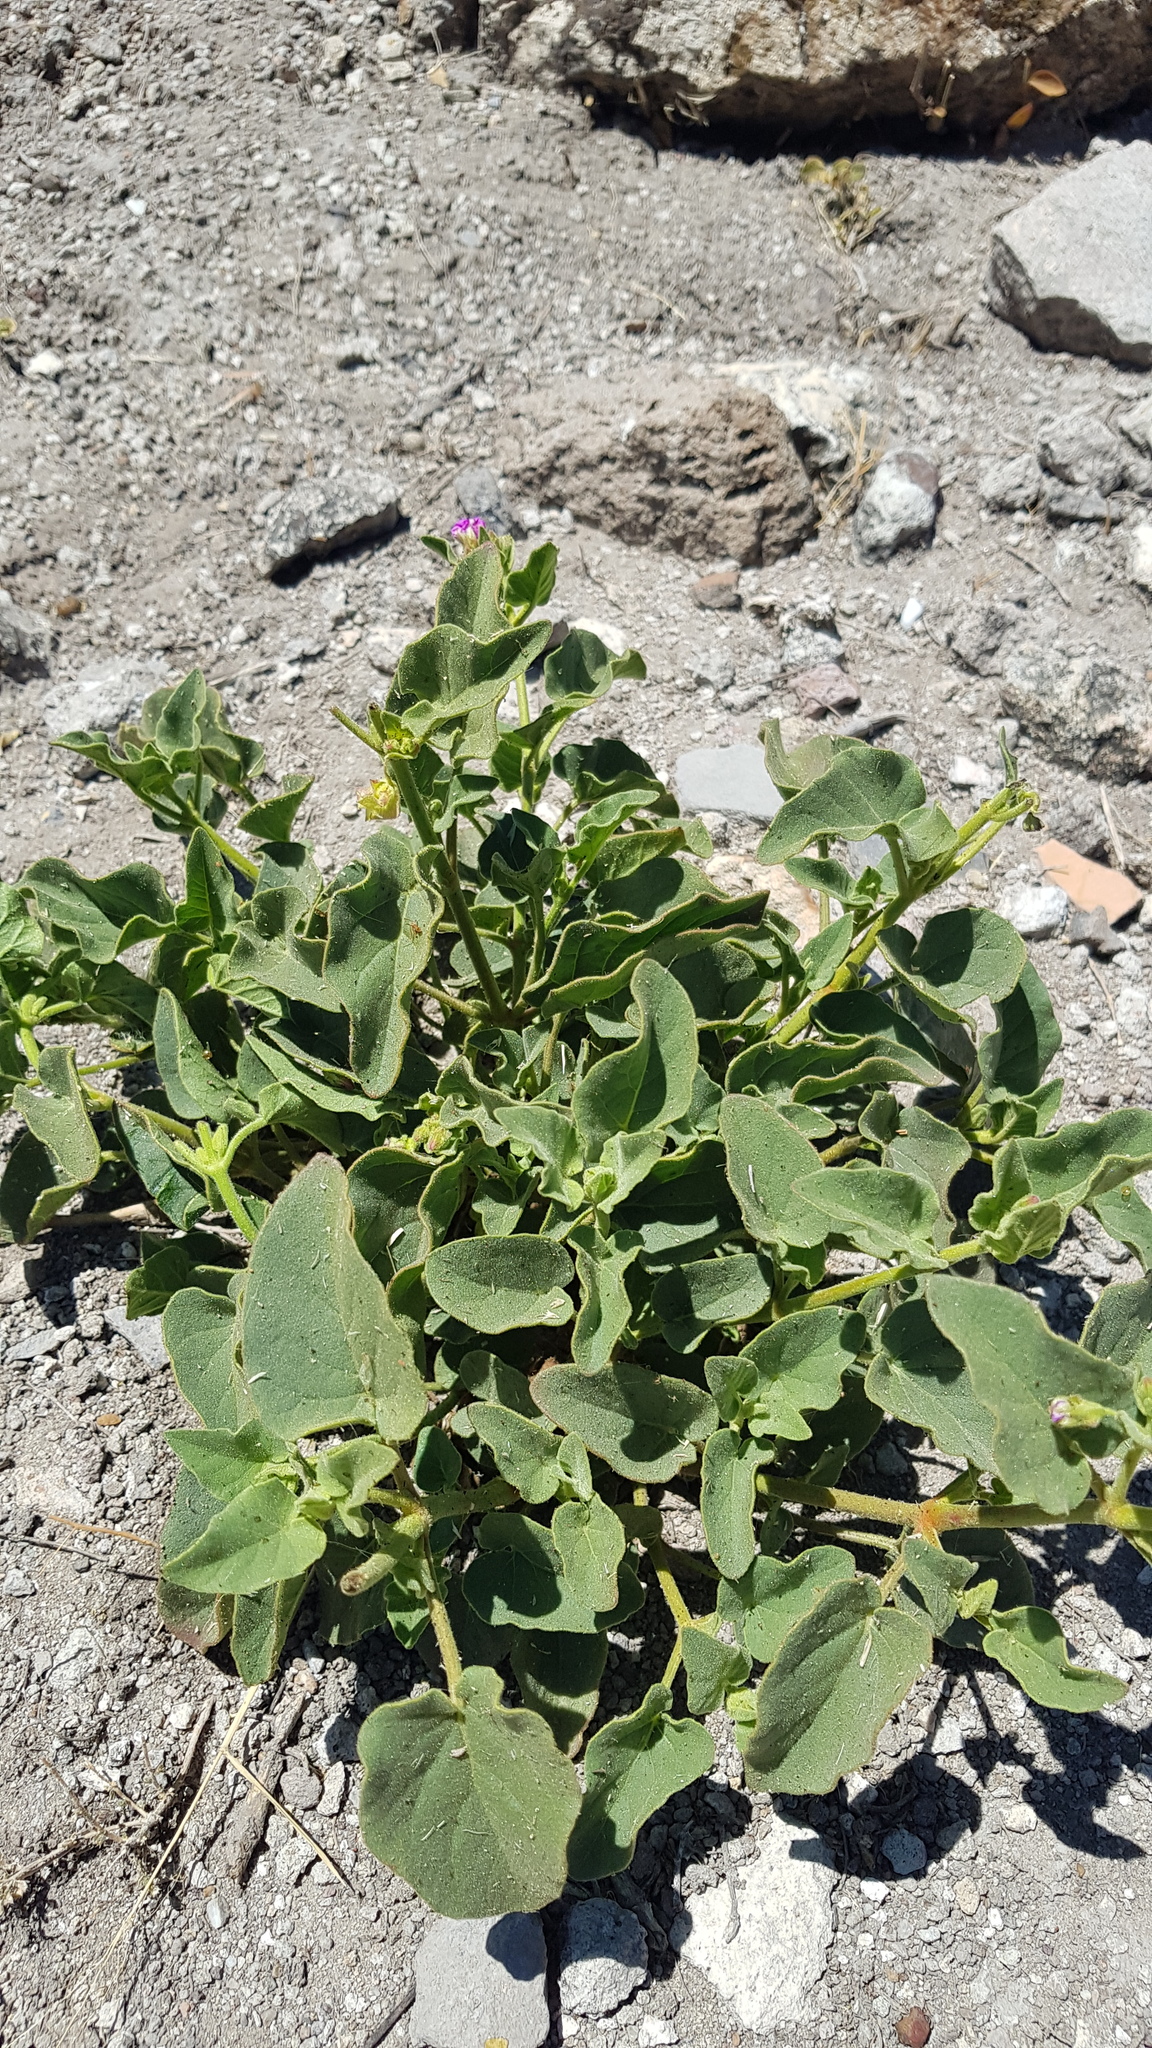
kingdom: Plantae
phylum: Tracheophyta
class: Magnoliopsida
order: Caryophyllales
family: Nyctaginaceae
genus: Mirabilis
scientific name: Mirabilis viscosa
